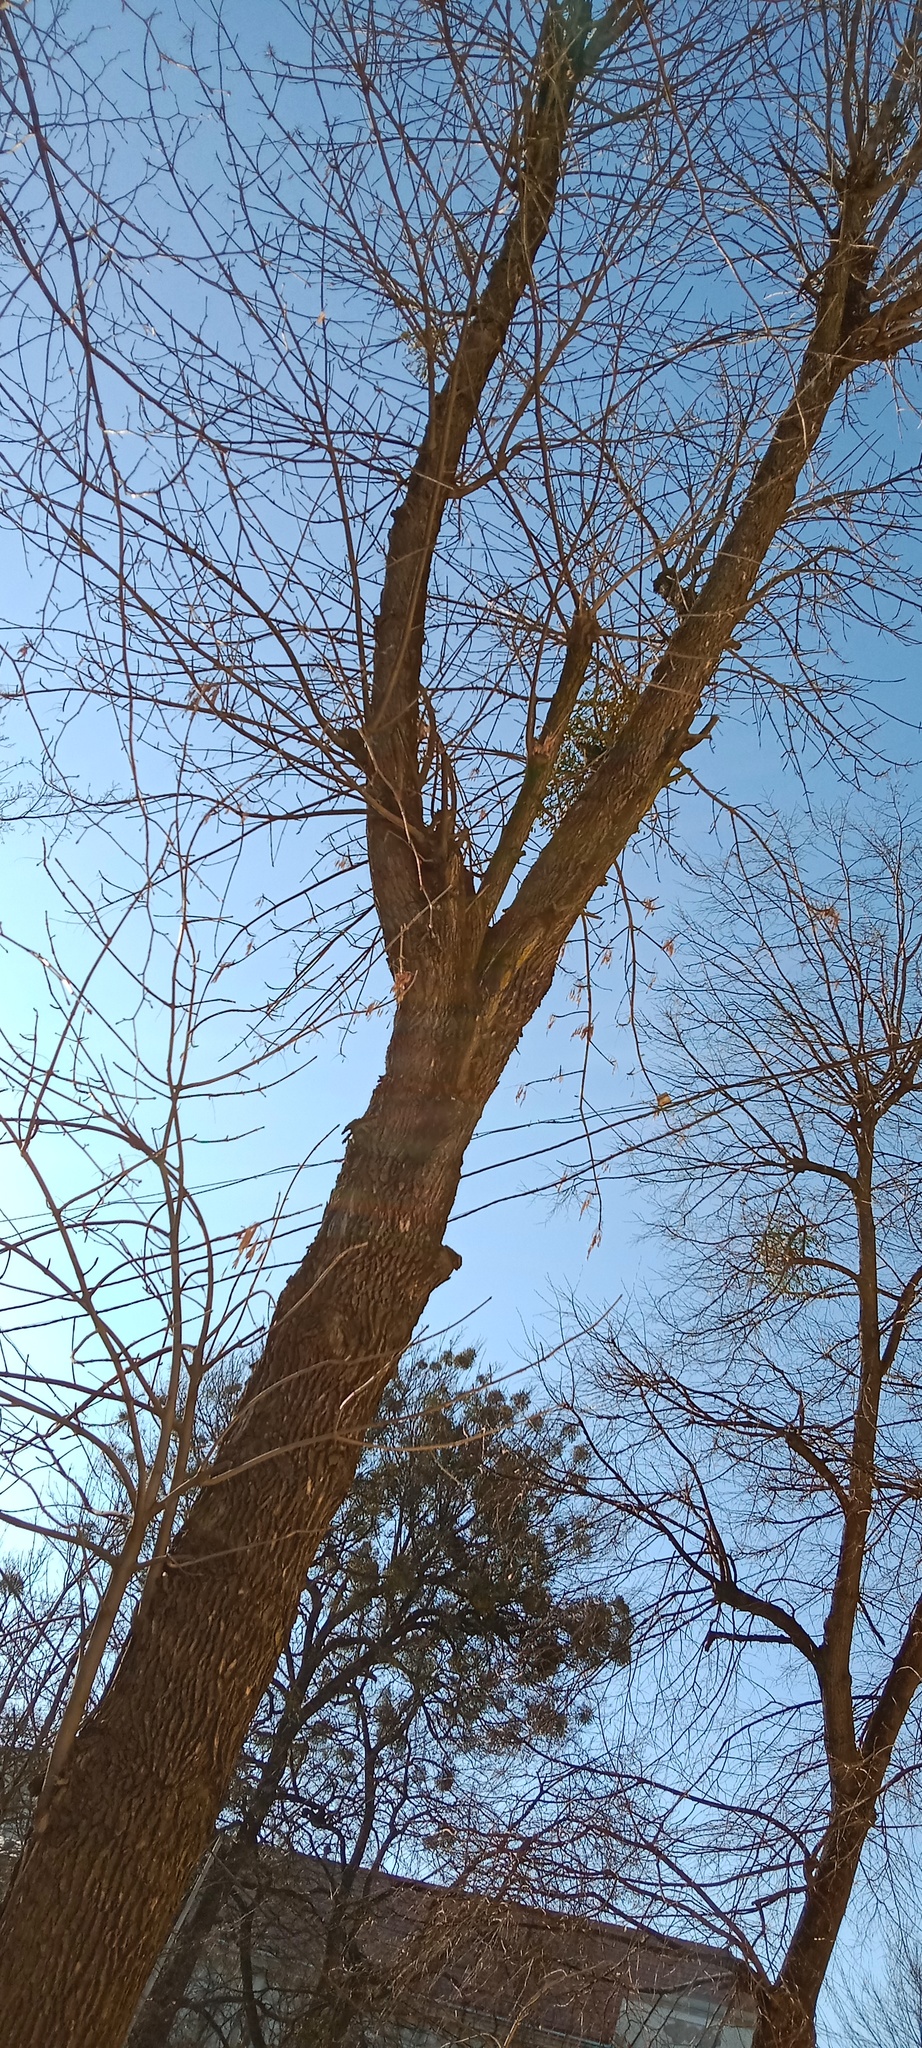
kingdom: Plantae
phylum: Tracheophyta
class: Magnoliopsida
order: Santalales
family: Viscaceae
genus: Viscum
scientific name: Viscum album
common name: Mistletoe
